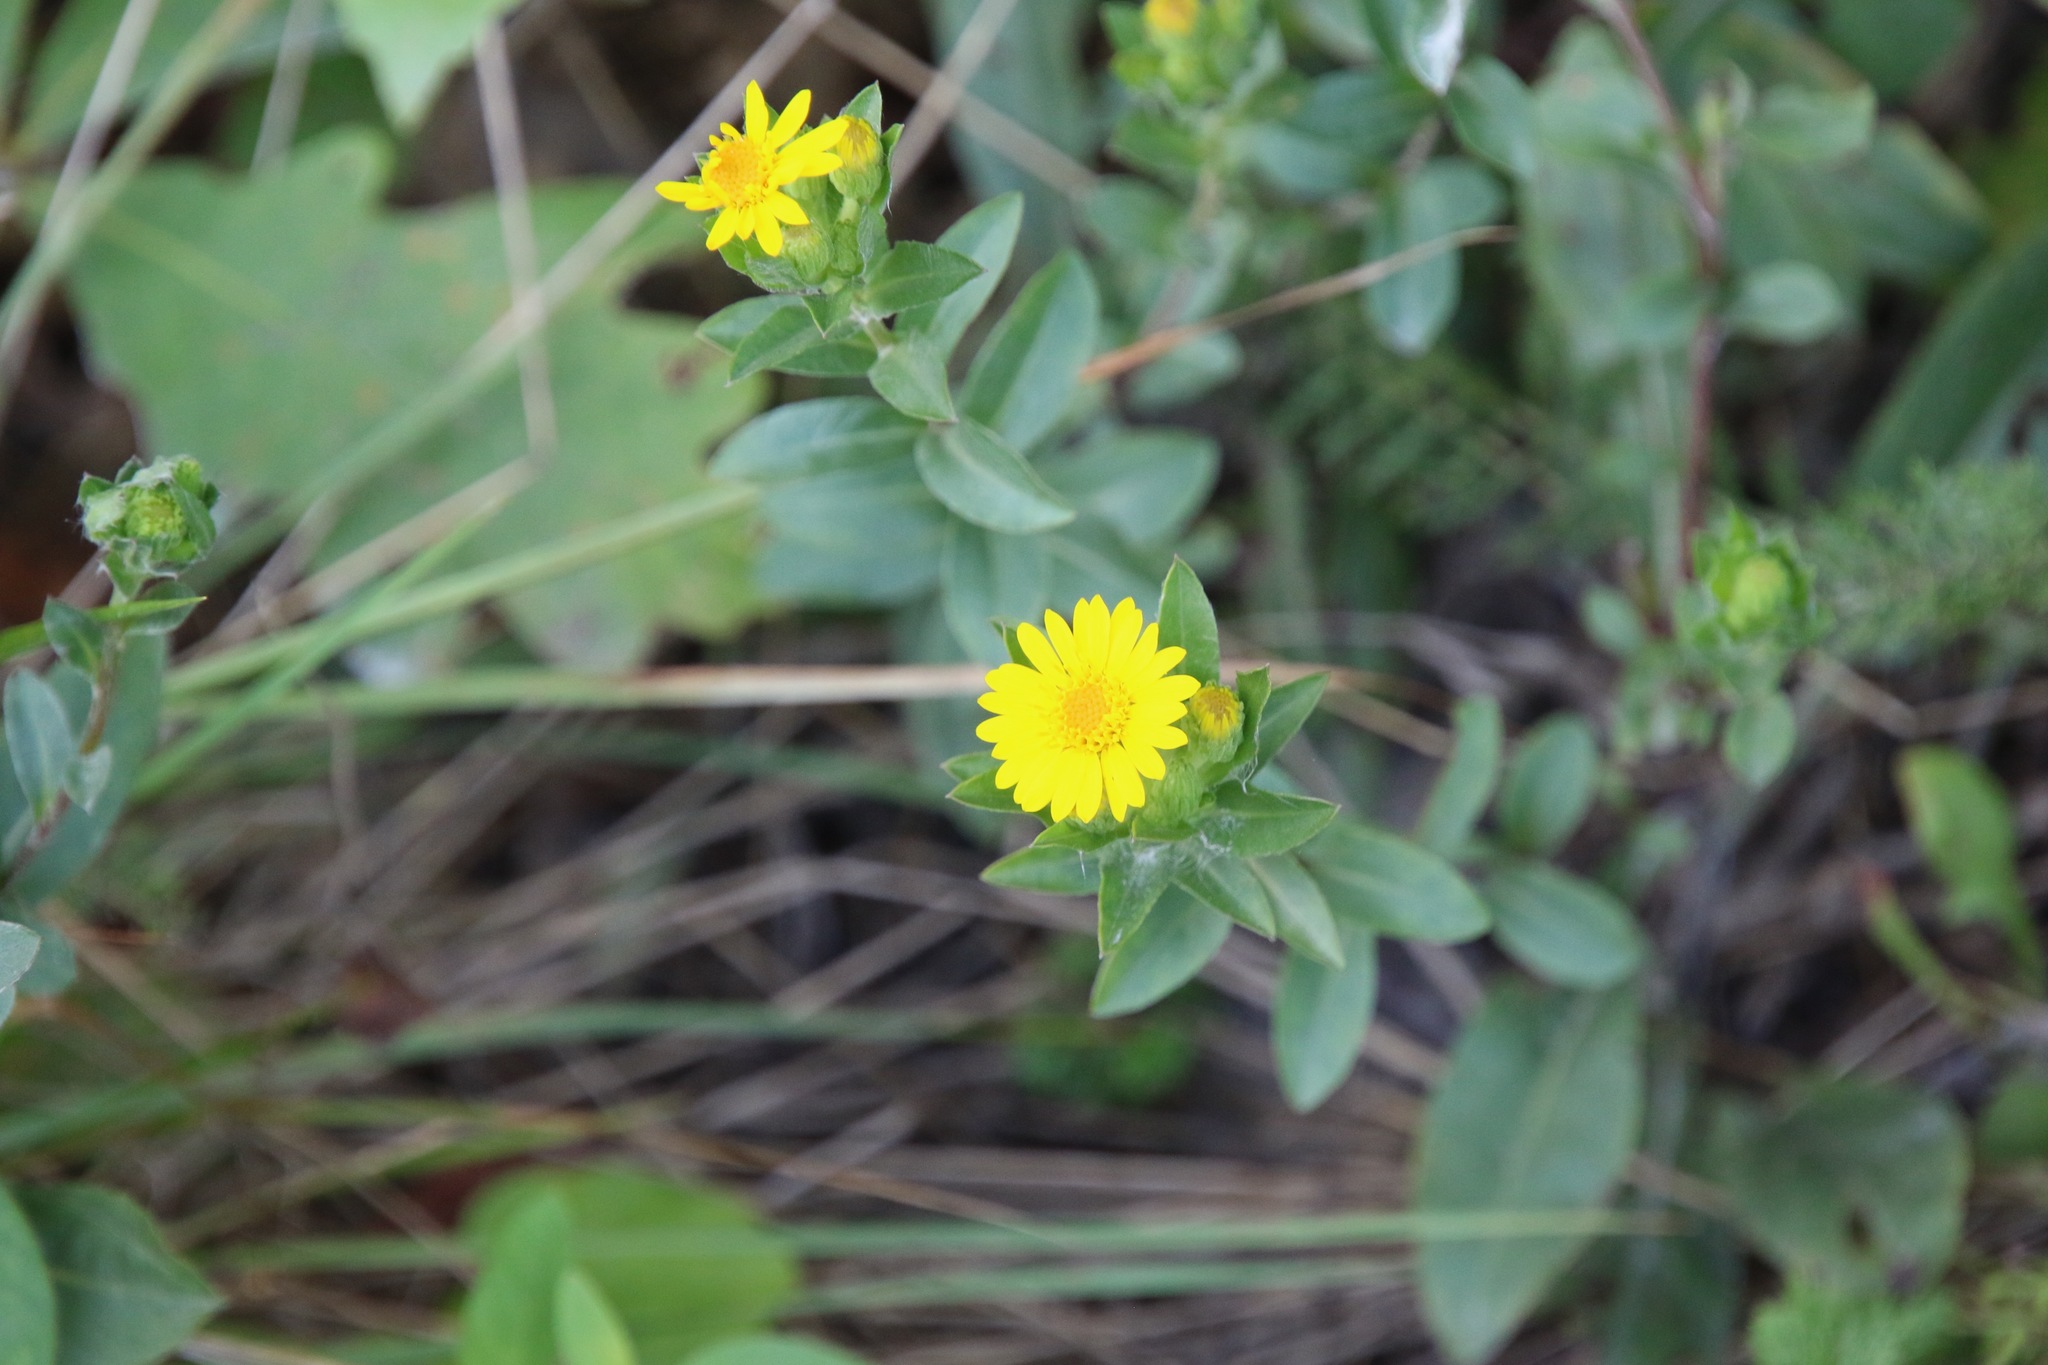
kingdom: Plantae
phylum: Tracheophyta
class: Magnoliopsida
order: Asterales
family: Asteraceae
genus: Chrysopsis
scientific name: Chrysopsis mariana
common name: Maryland golden-aster
